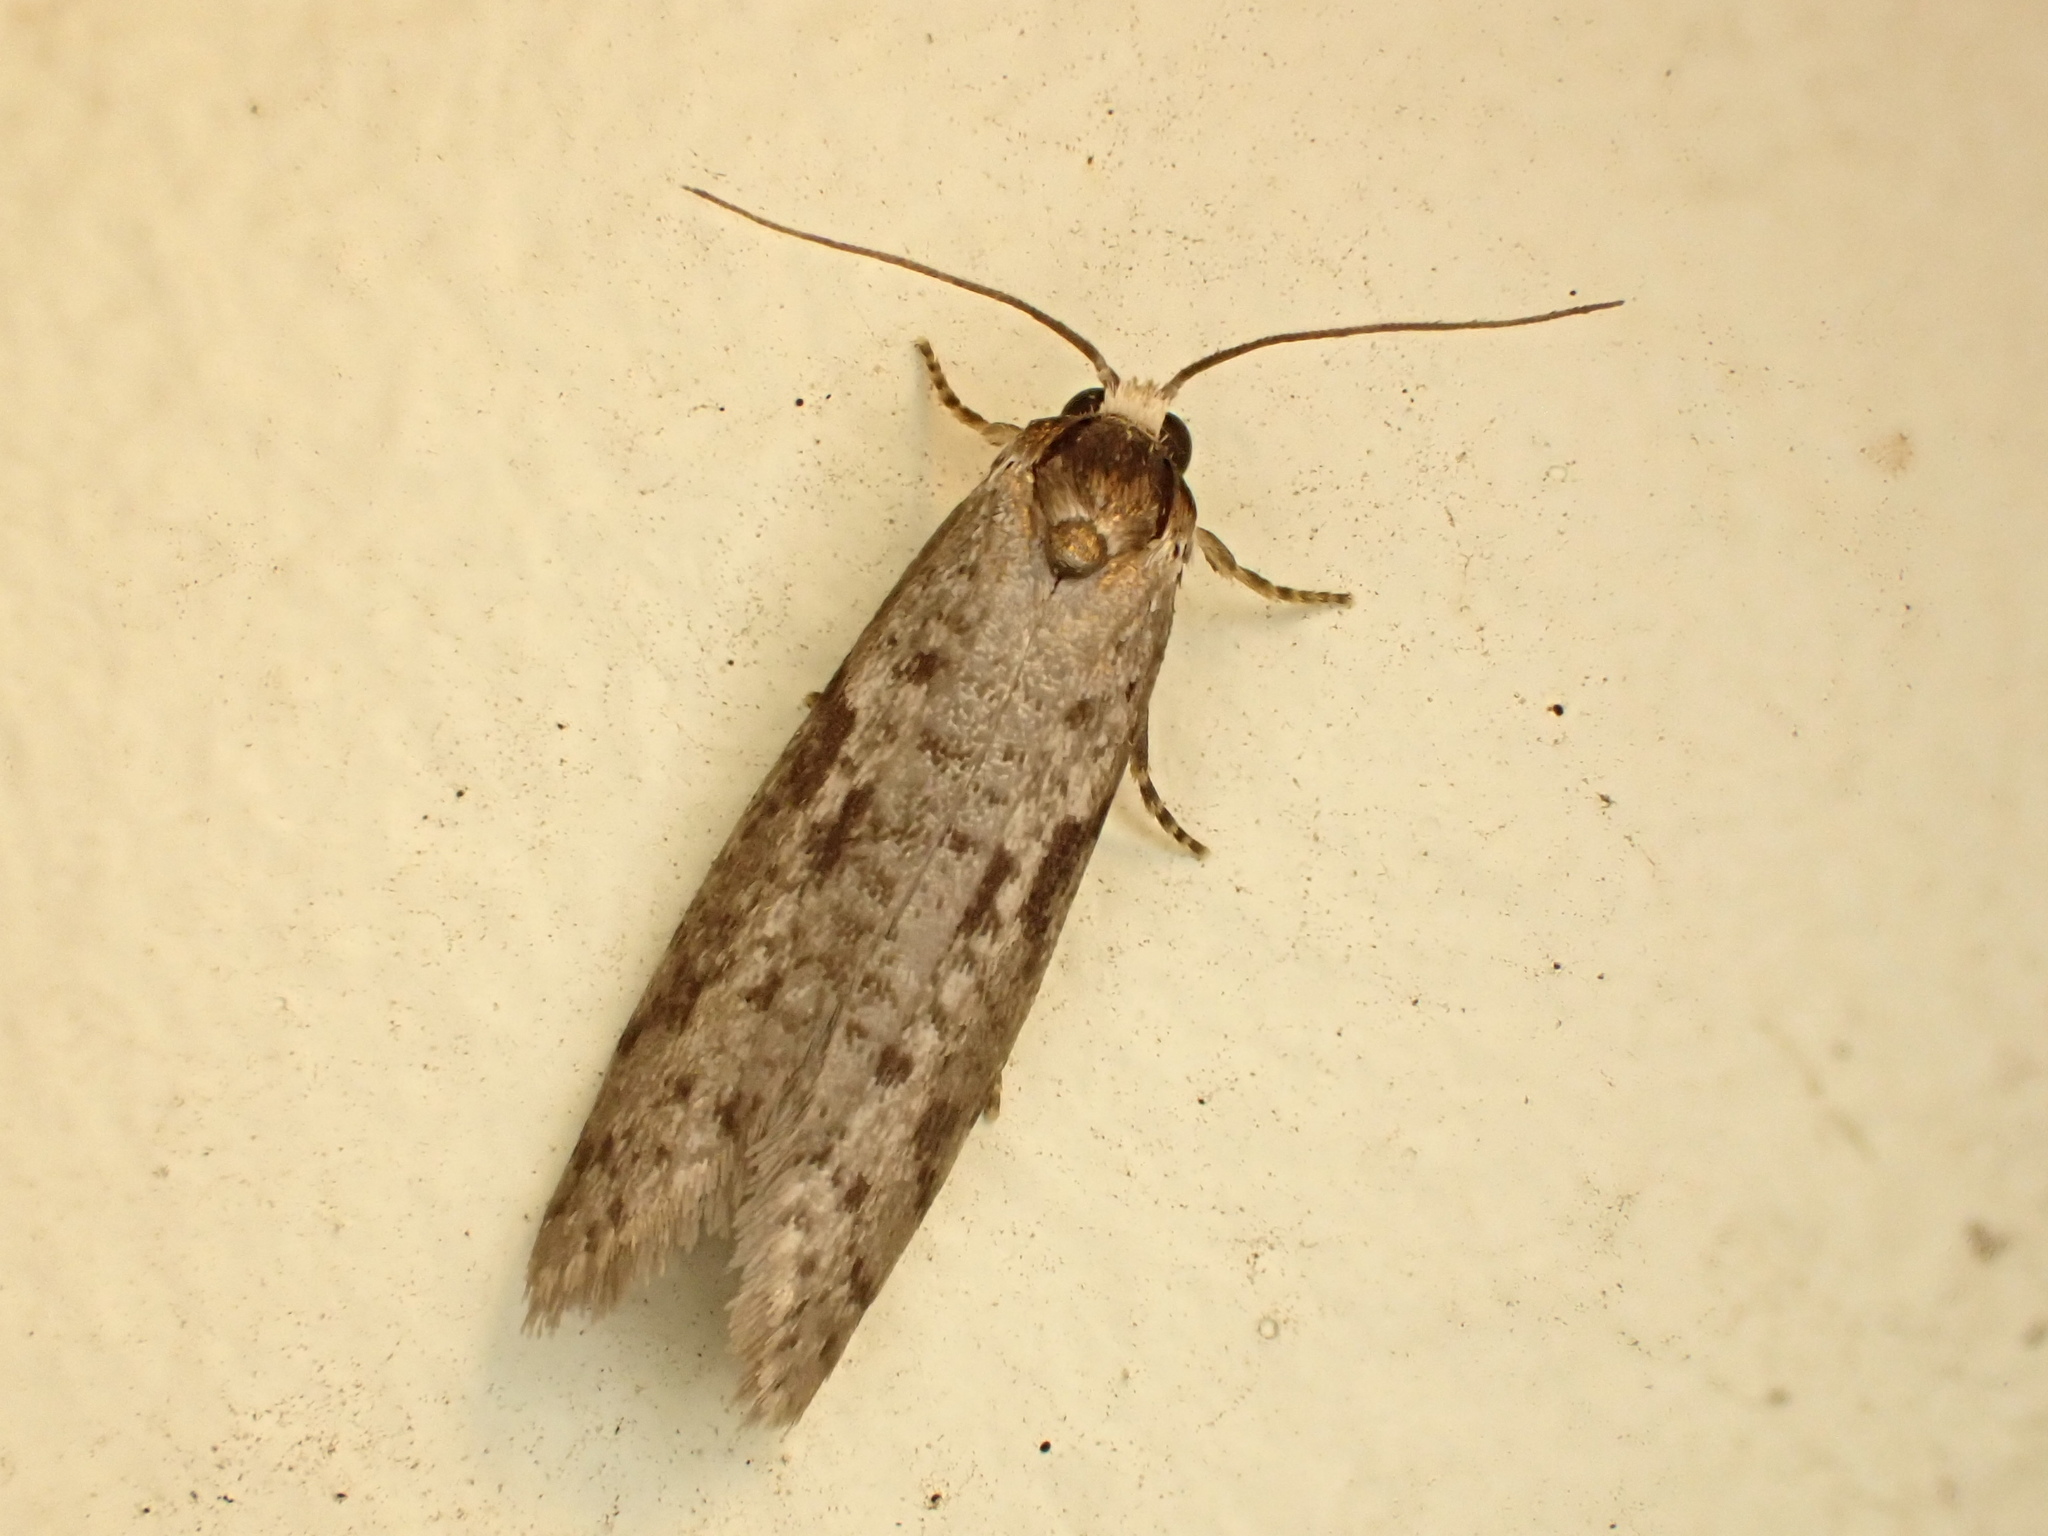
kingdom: Animalia
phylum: Arthropoda
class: Insecta
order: Lepidoptera
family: Psychidae
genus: Lepidoscia
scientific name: Lepidoscia protorna
